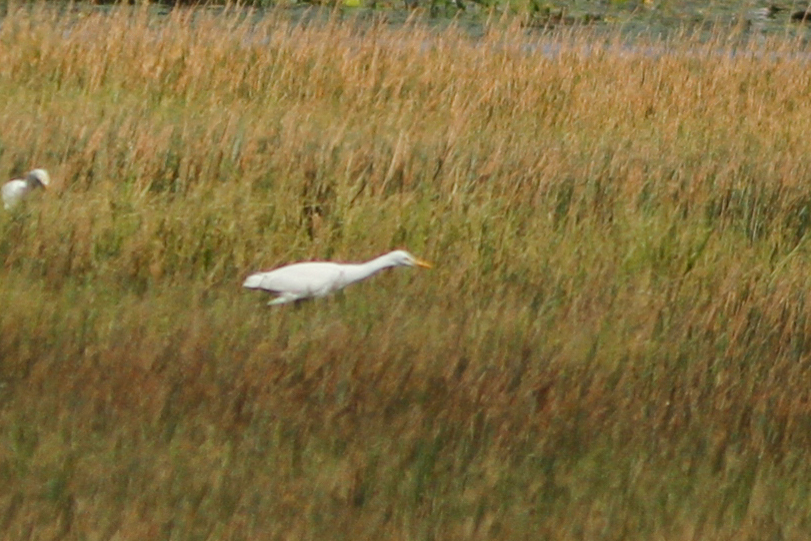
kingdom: Animalia
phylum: Chordata
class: Aves
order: Pelecaniformes
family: Ardeidae
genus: Bubulcus
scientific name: Bubulcus coromandus
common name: Eastern cattle egret
